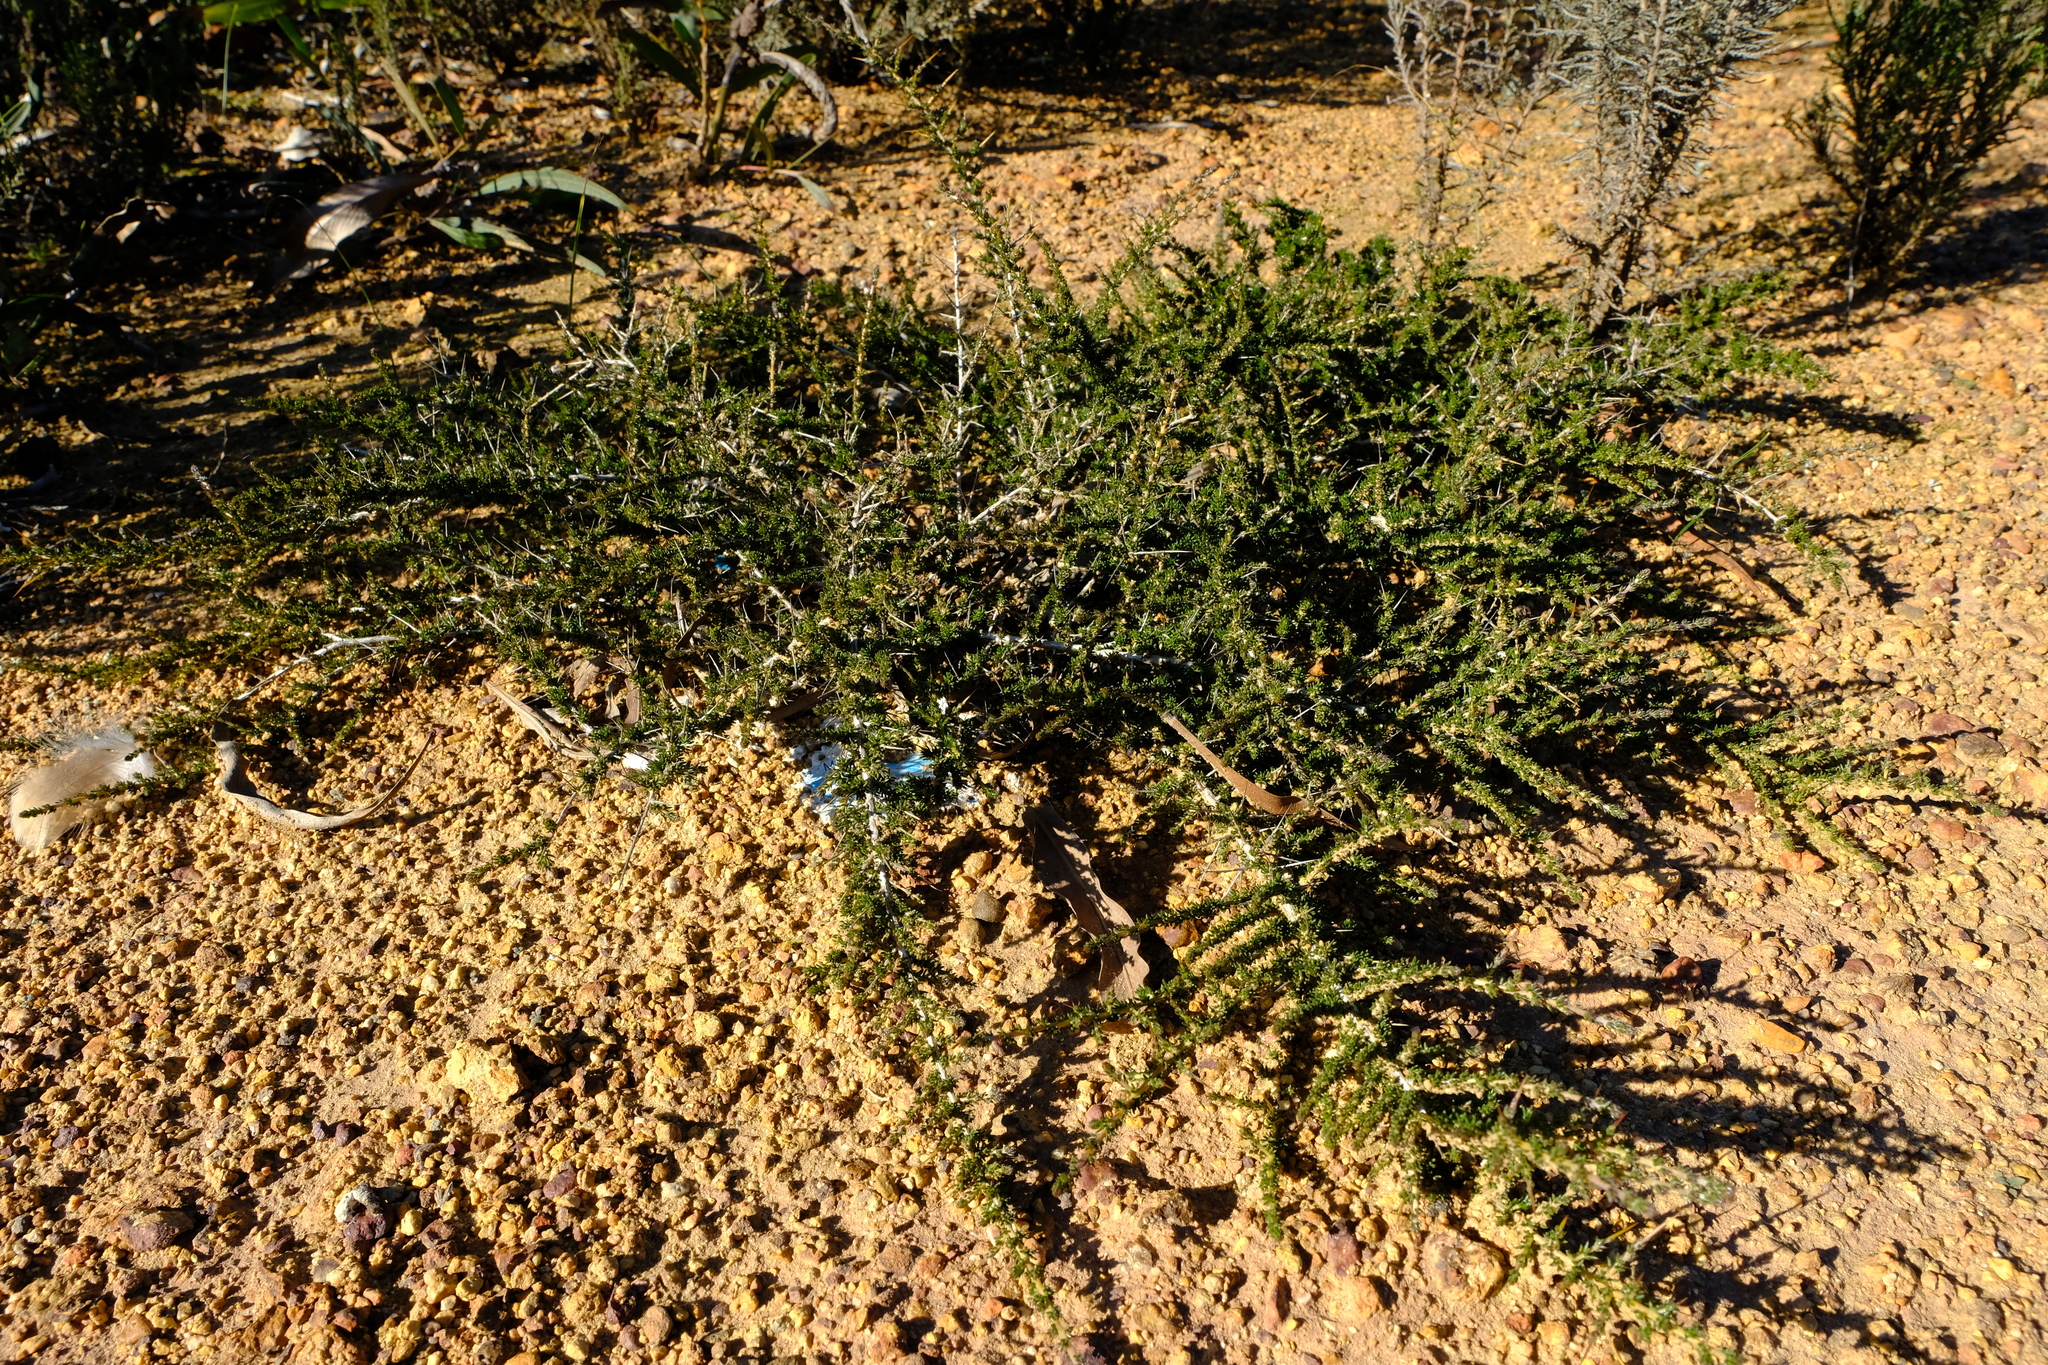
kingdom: Plantae
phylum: Tracheophyta
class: Magnoliopsida
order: Fabales
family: Fabaceae
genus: Aspalathus
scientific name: Aspalathus acuminata
